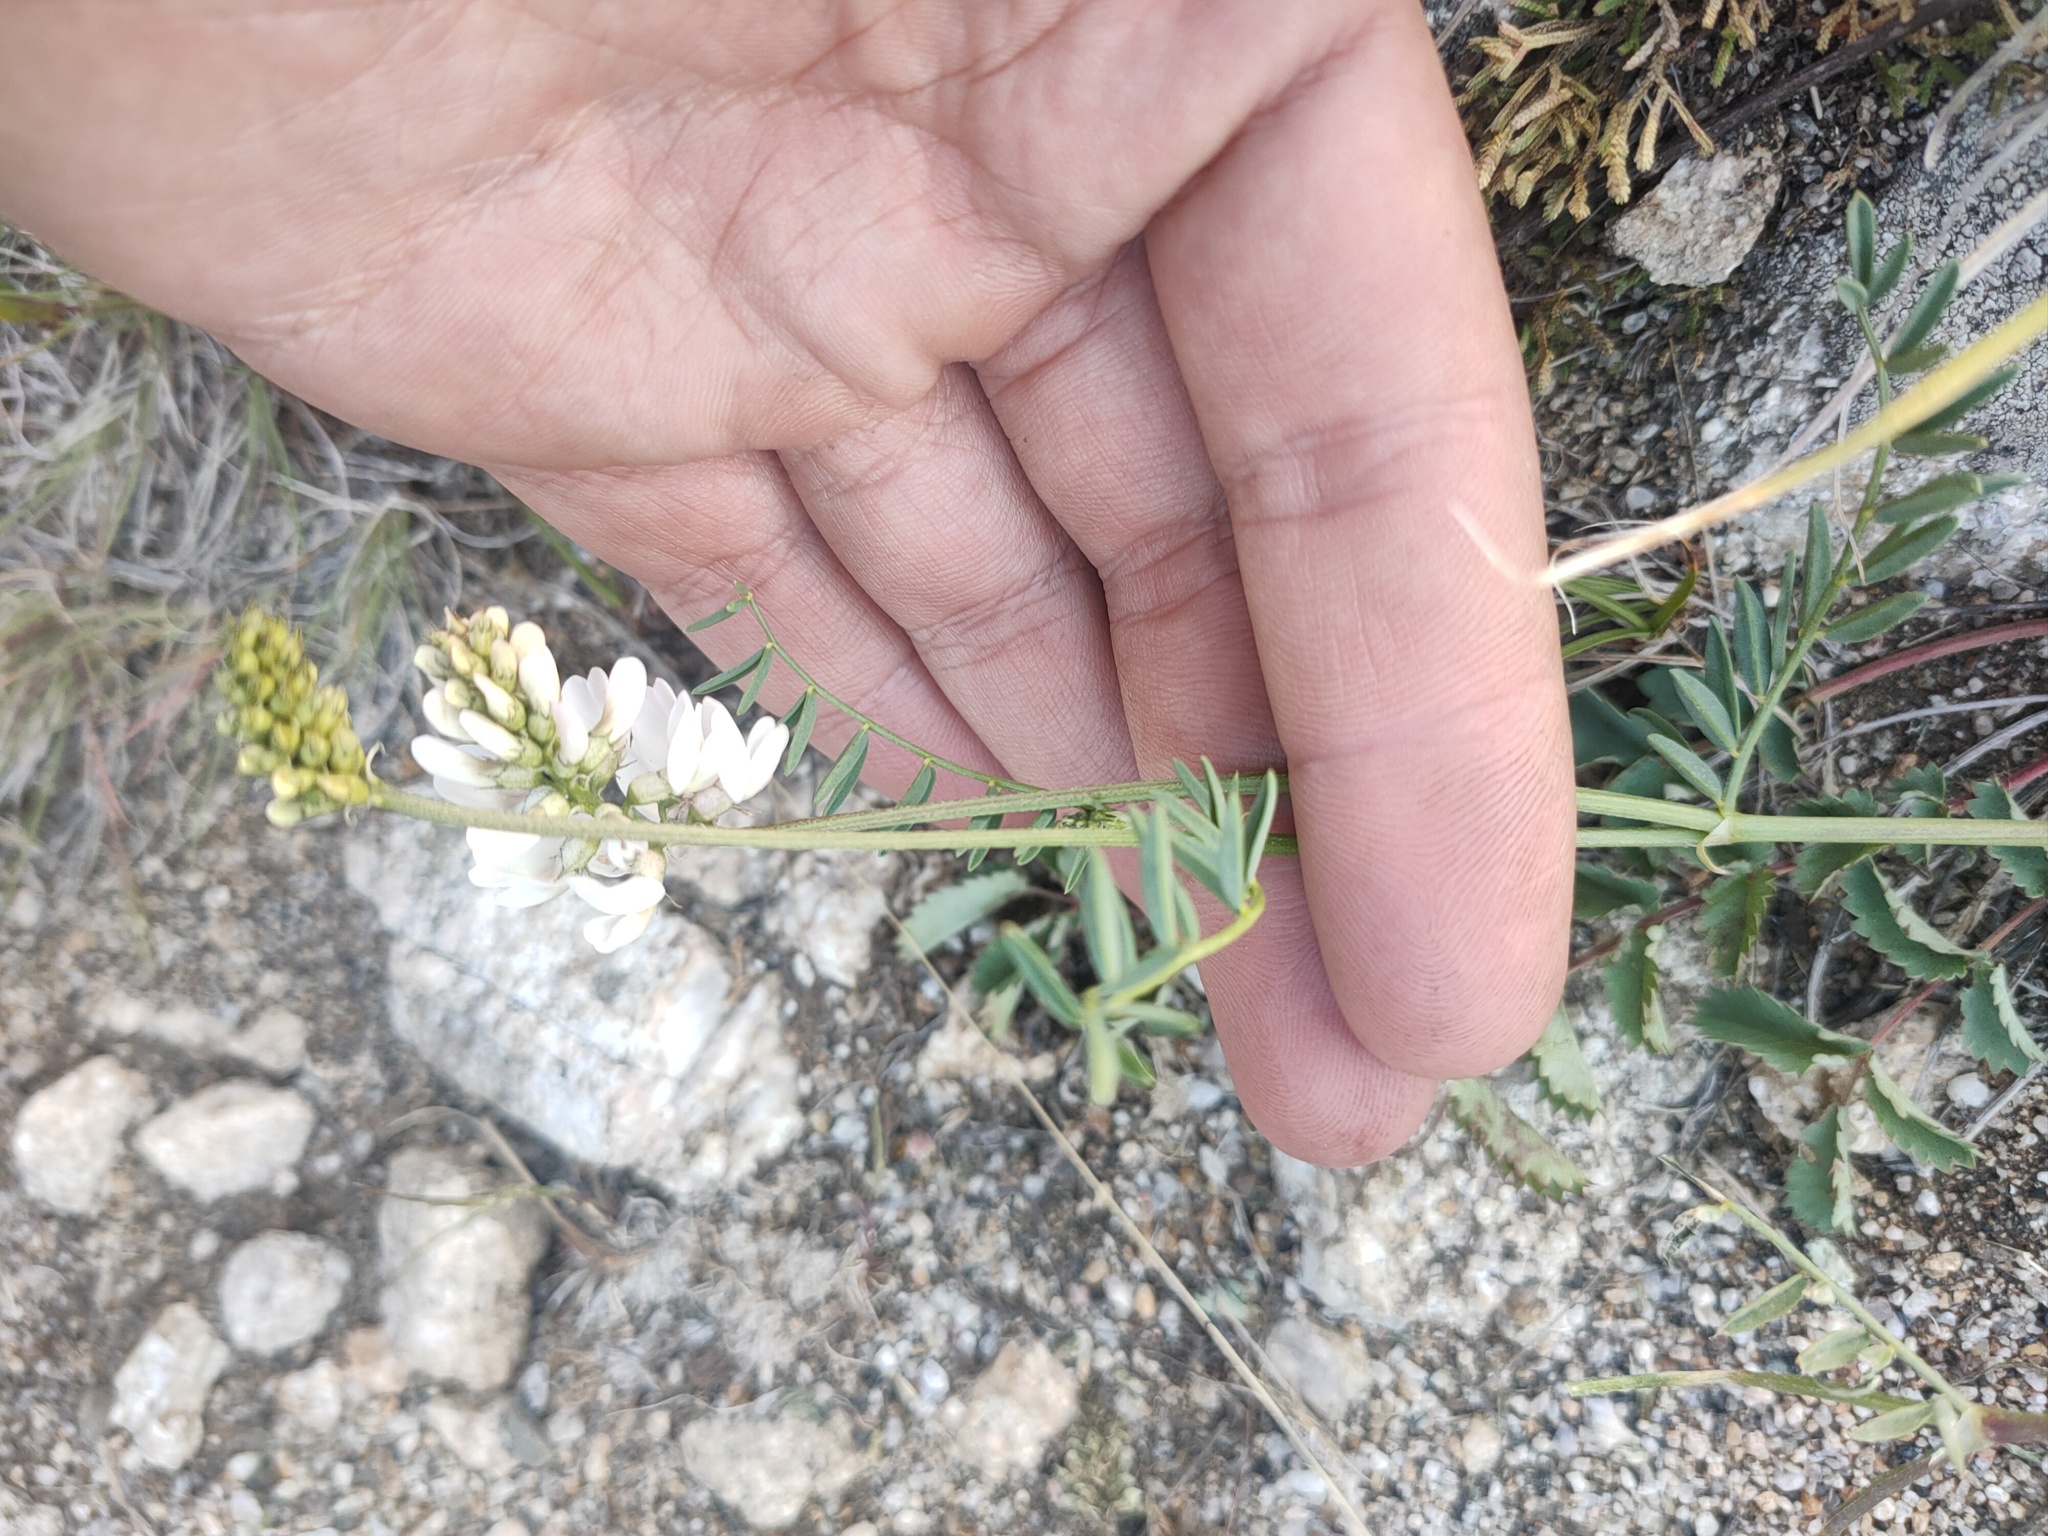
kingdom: Plantae
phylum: Tracheophyta
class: Magnoliopsida
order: Fabales
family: Fabaceae
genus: Astragalus
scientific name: Astragalus versicolor
